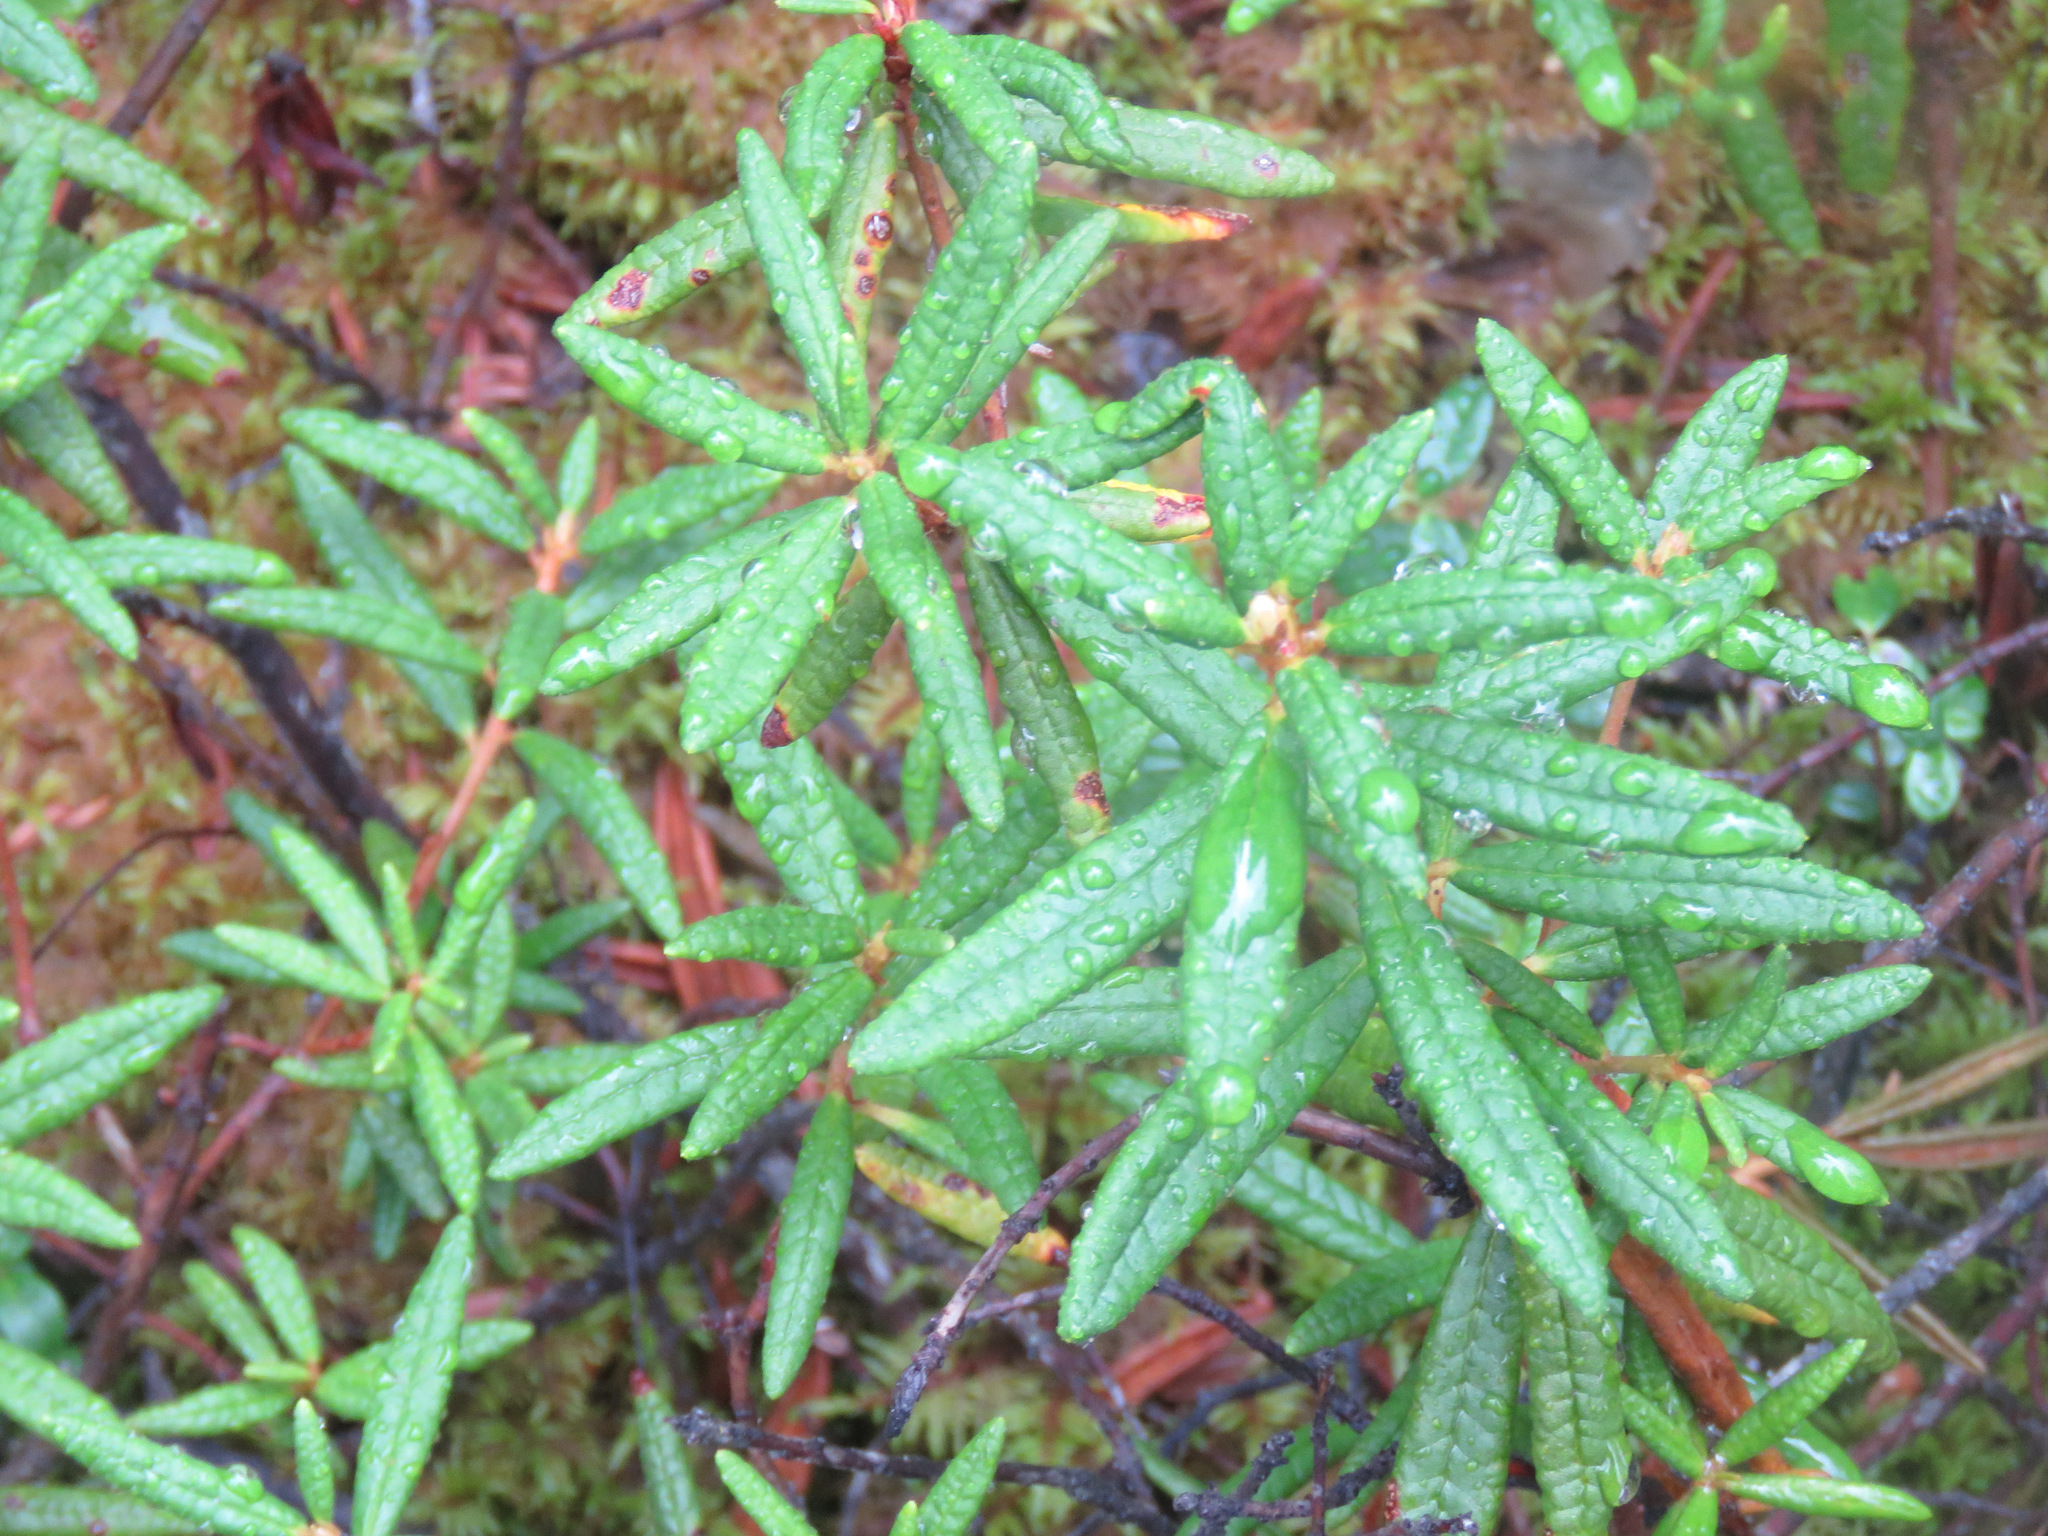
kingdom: Plantae
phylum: Tracheophyta
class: Magnoliopsida
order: Ericales
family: Ericaceae
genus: Rhododendron
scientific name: Rhododendron groenlandicum
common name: Bog labrador tea
